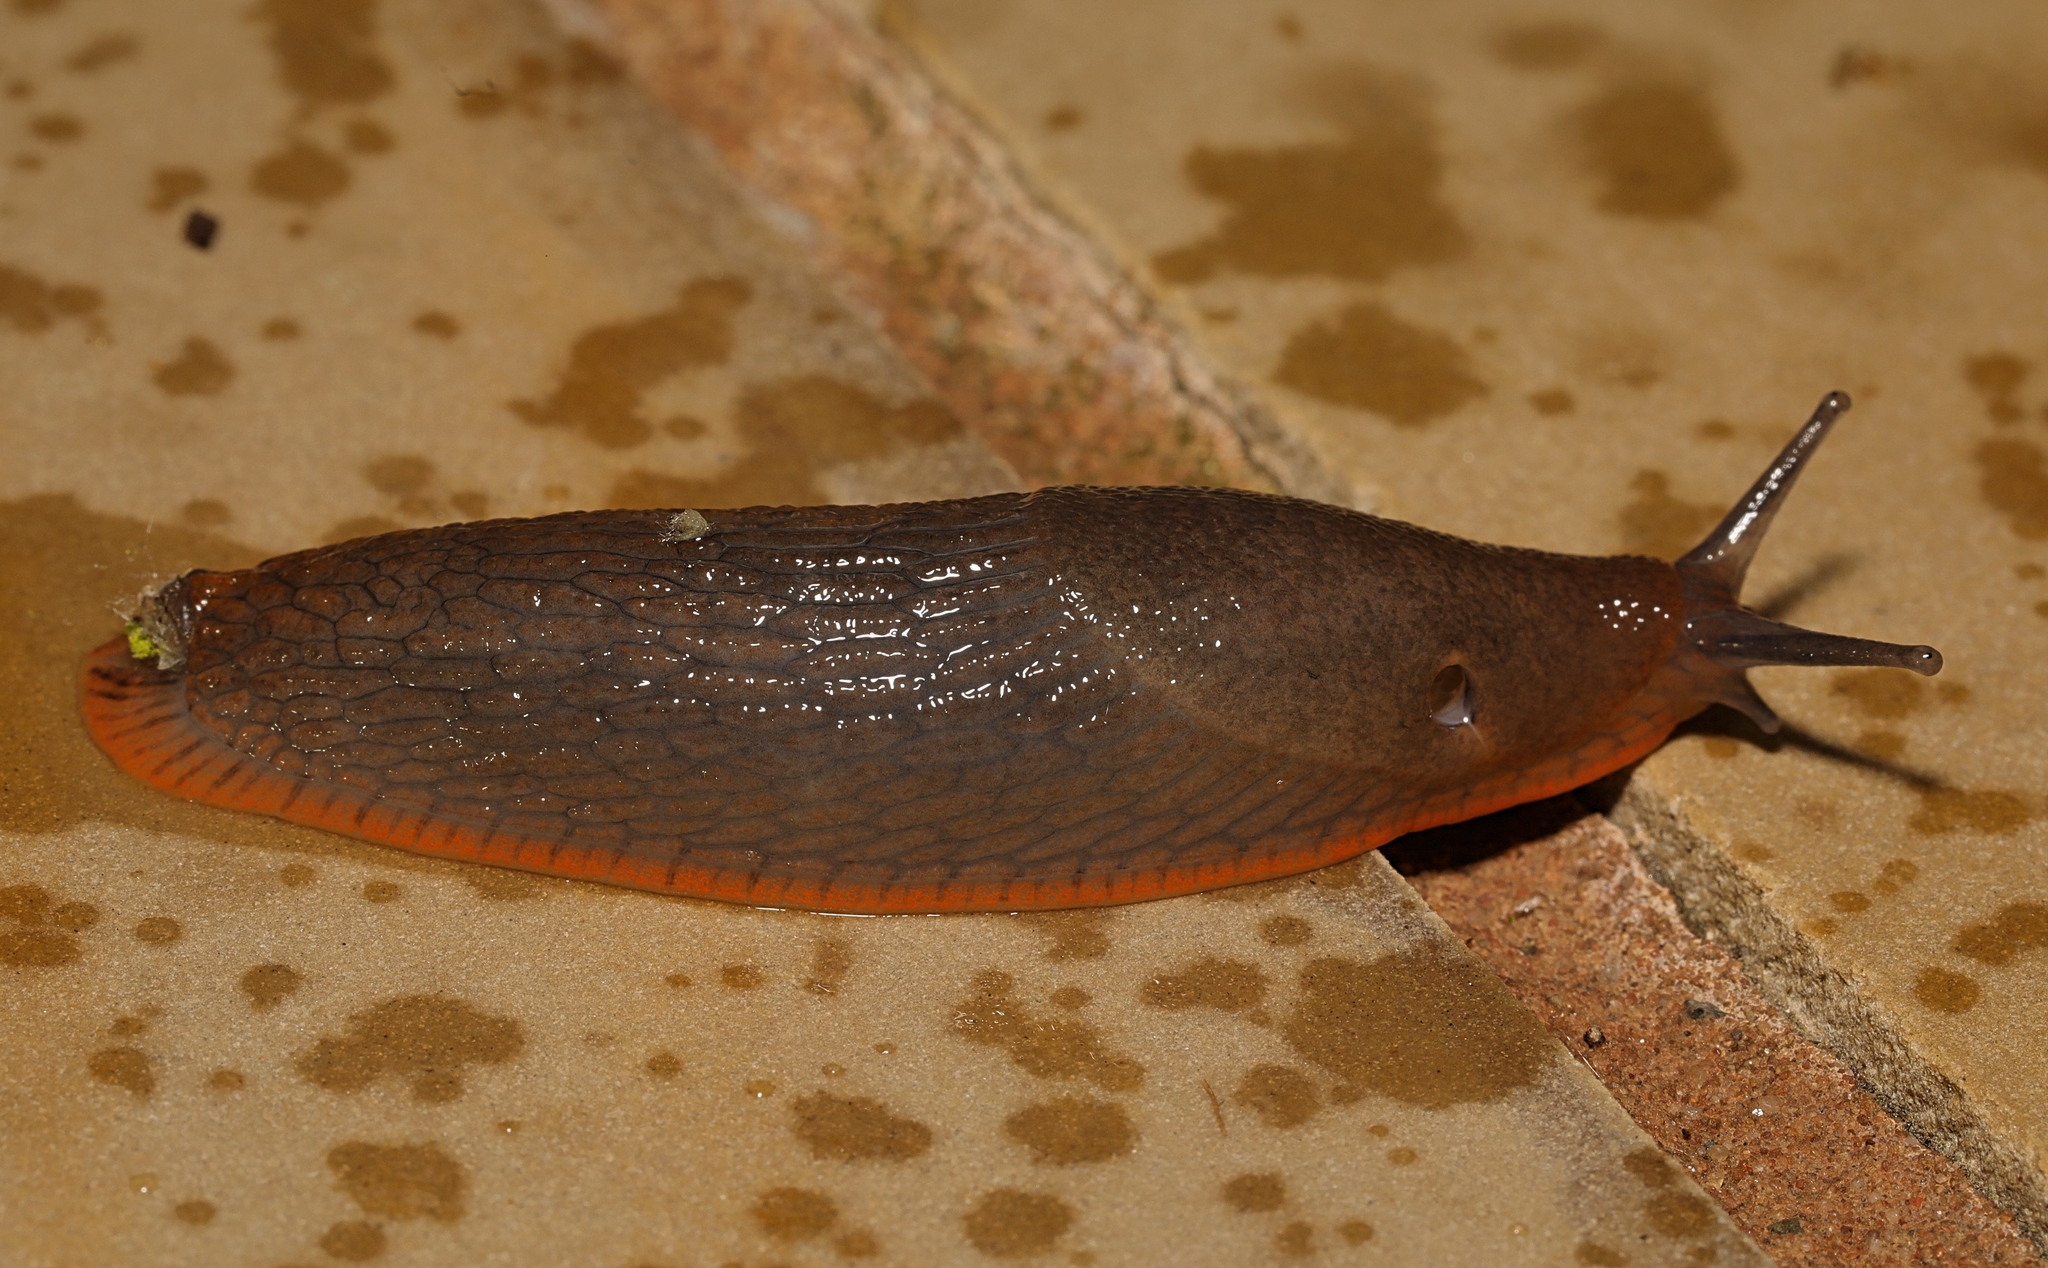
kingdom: Animalia
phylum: Mollusca
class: Gastropoda
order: Stylommatophora
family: Arionidae
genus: Arion
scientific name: Arion
